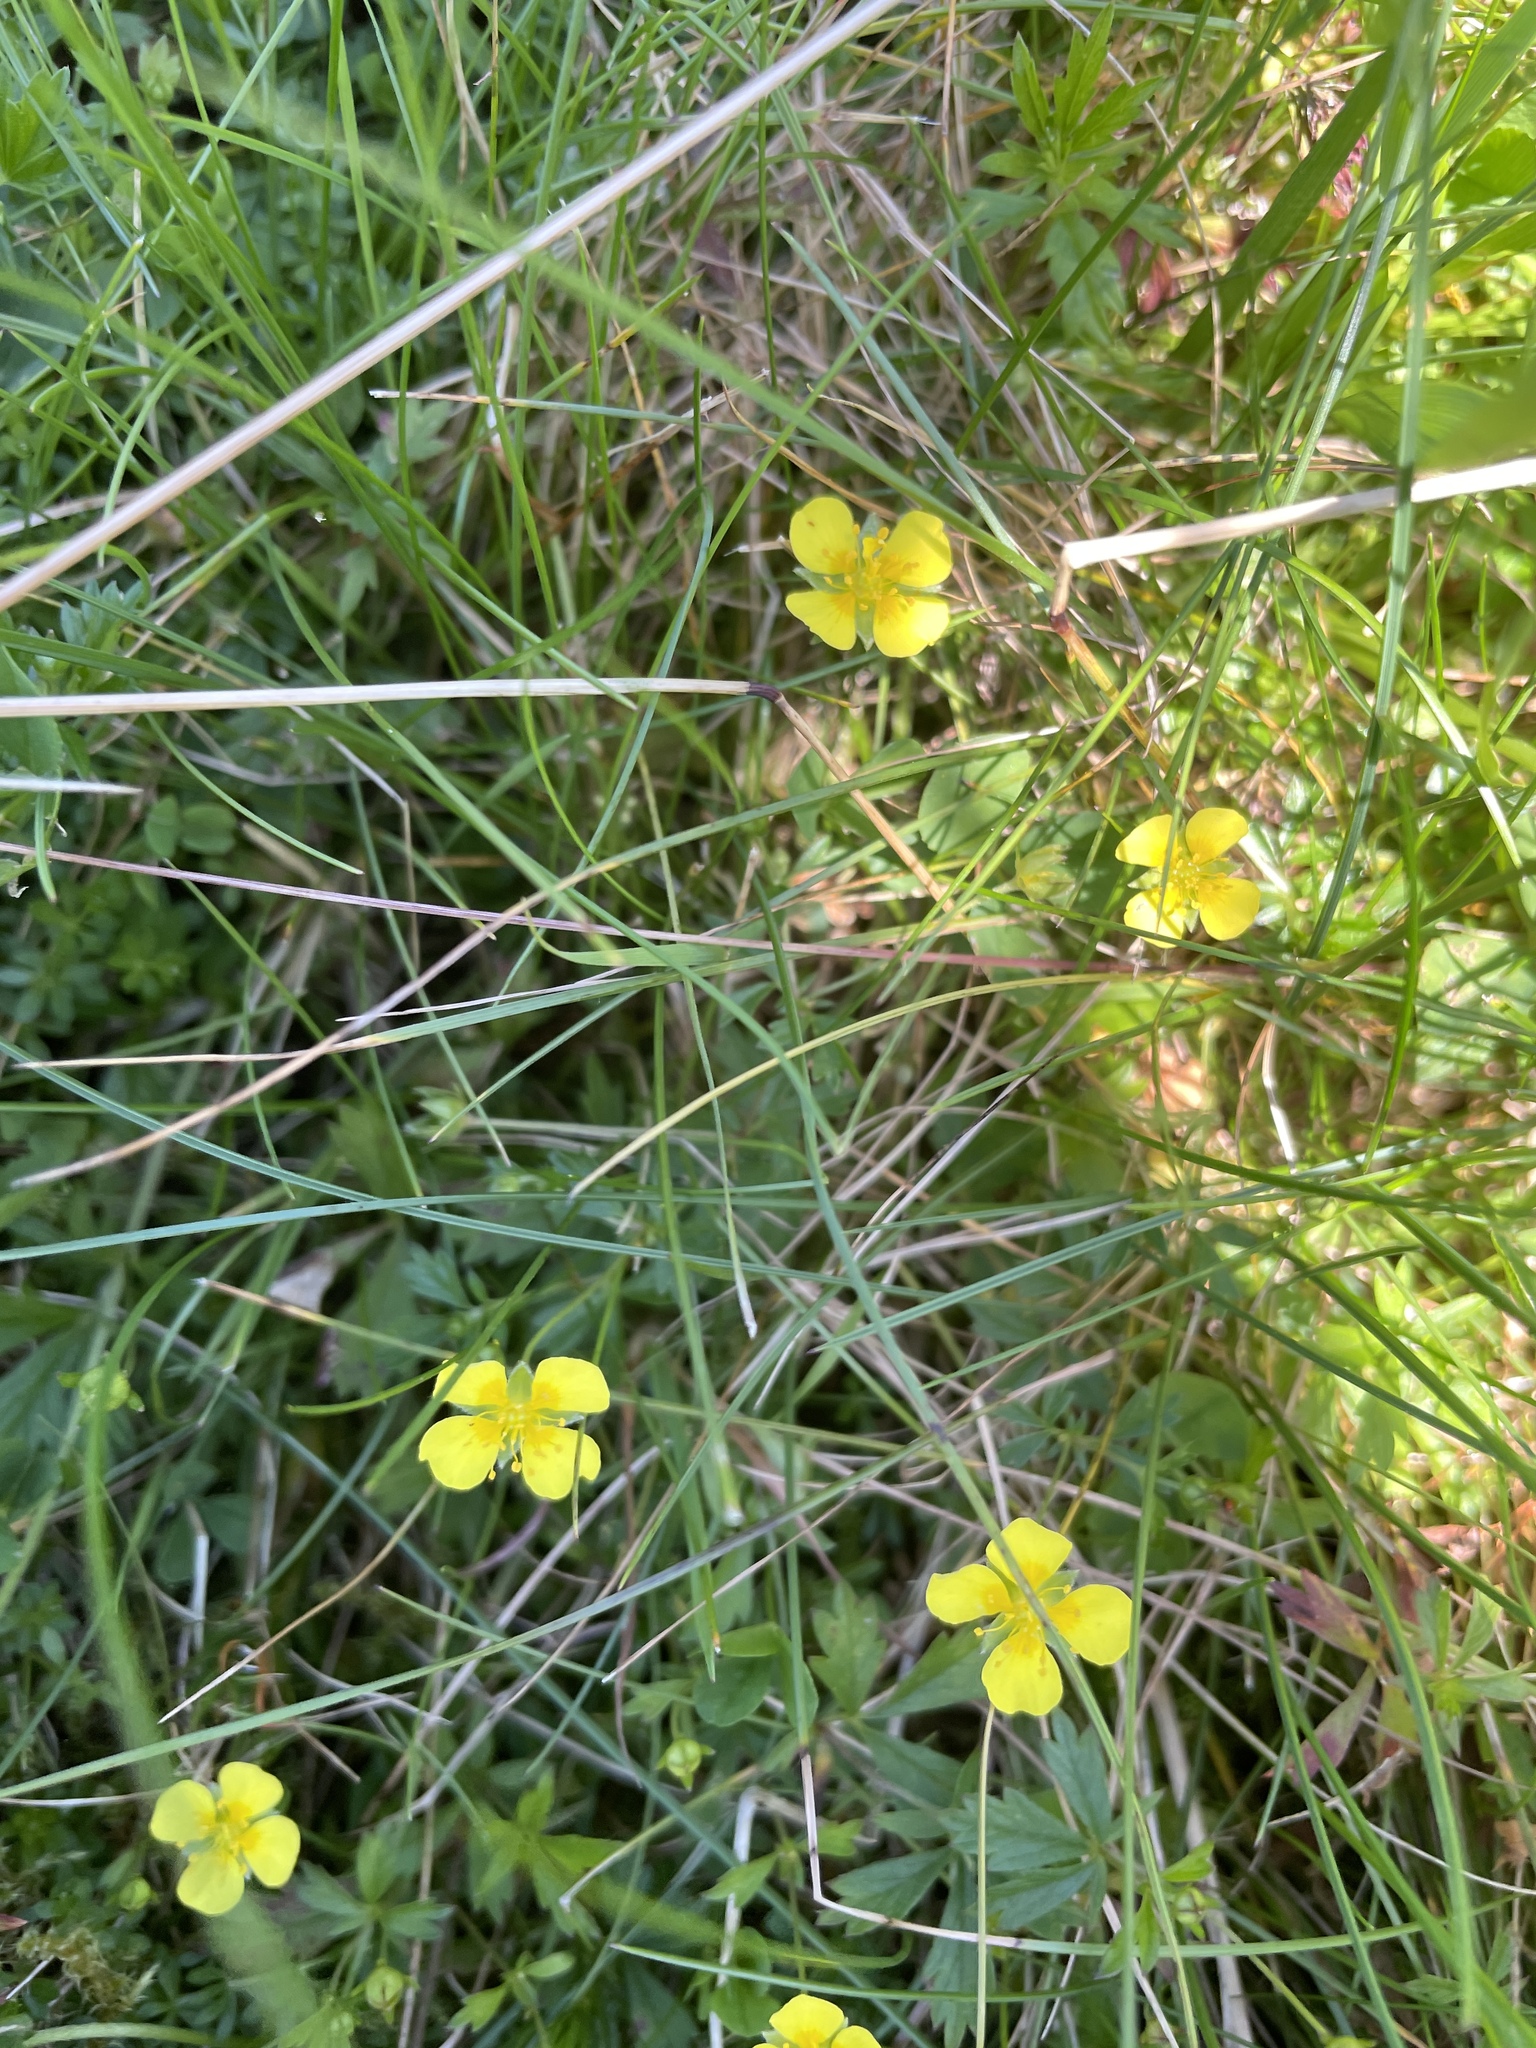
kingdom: Plantae
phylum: Tracheophyta
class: Magnoliopsida
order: Rosales
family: Rosaceae
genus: Potentilla
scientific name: Potentilla erecta
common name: Tormentil
